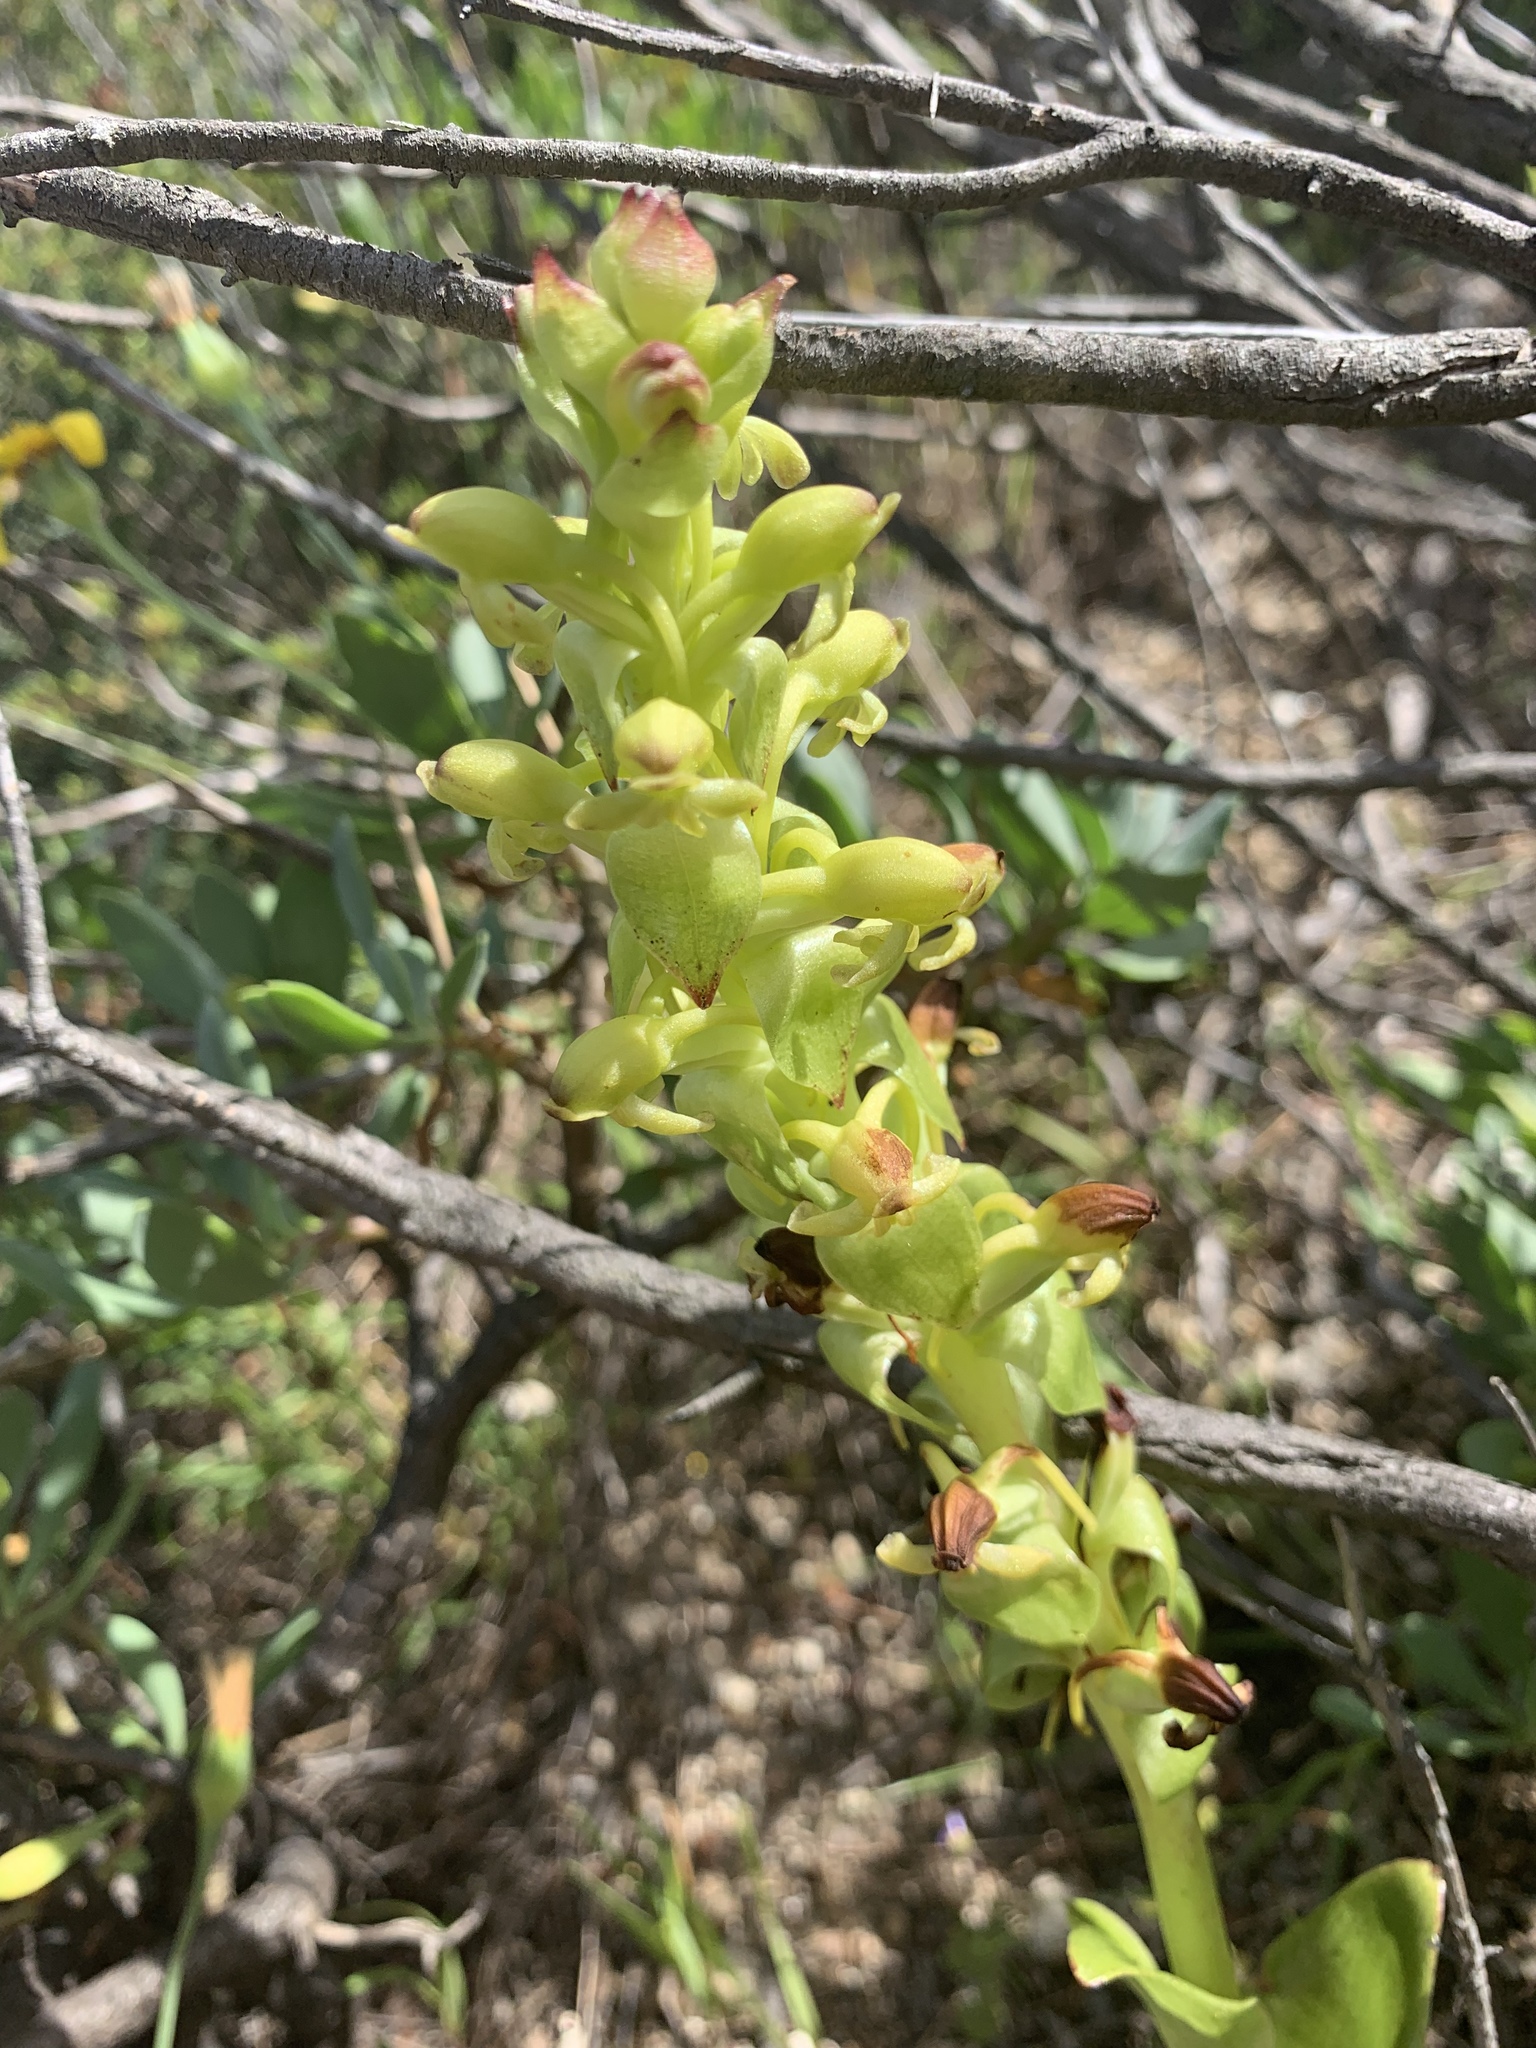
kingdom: Plantae
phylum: Tracheophyta
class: Liliopsida
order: Asparagales
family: Orchidaceae
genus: Satyrium
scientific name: Satyrium odorum
